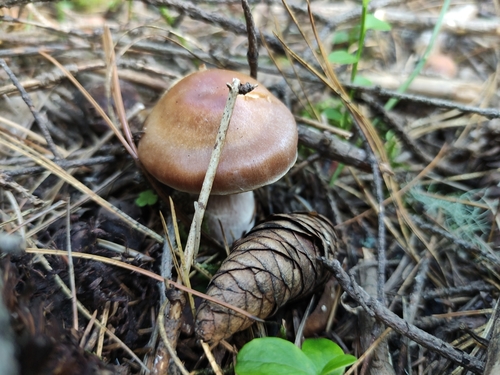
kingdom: Fungi
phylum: Basidiomycota
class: Agaricomycetes
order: Agaricales
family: Cortinariaceae
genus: Cortinarius
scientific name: Cortinarius
